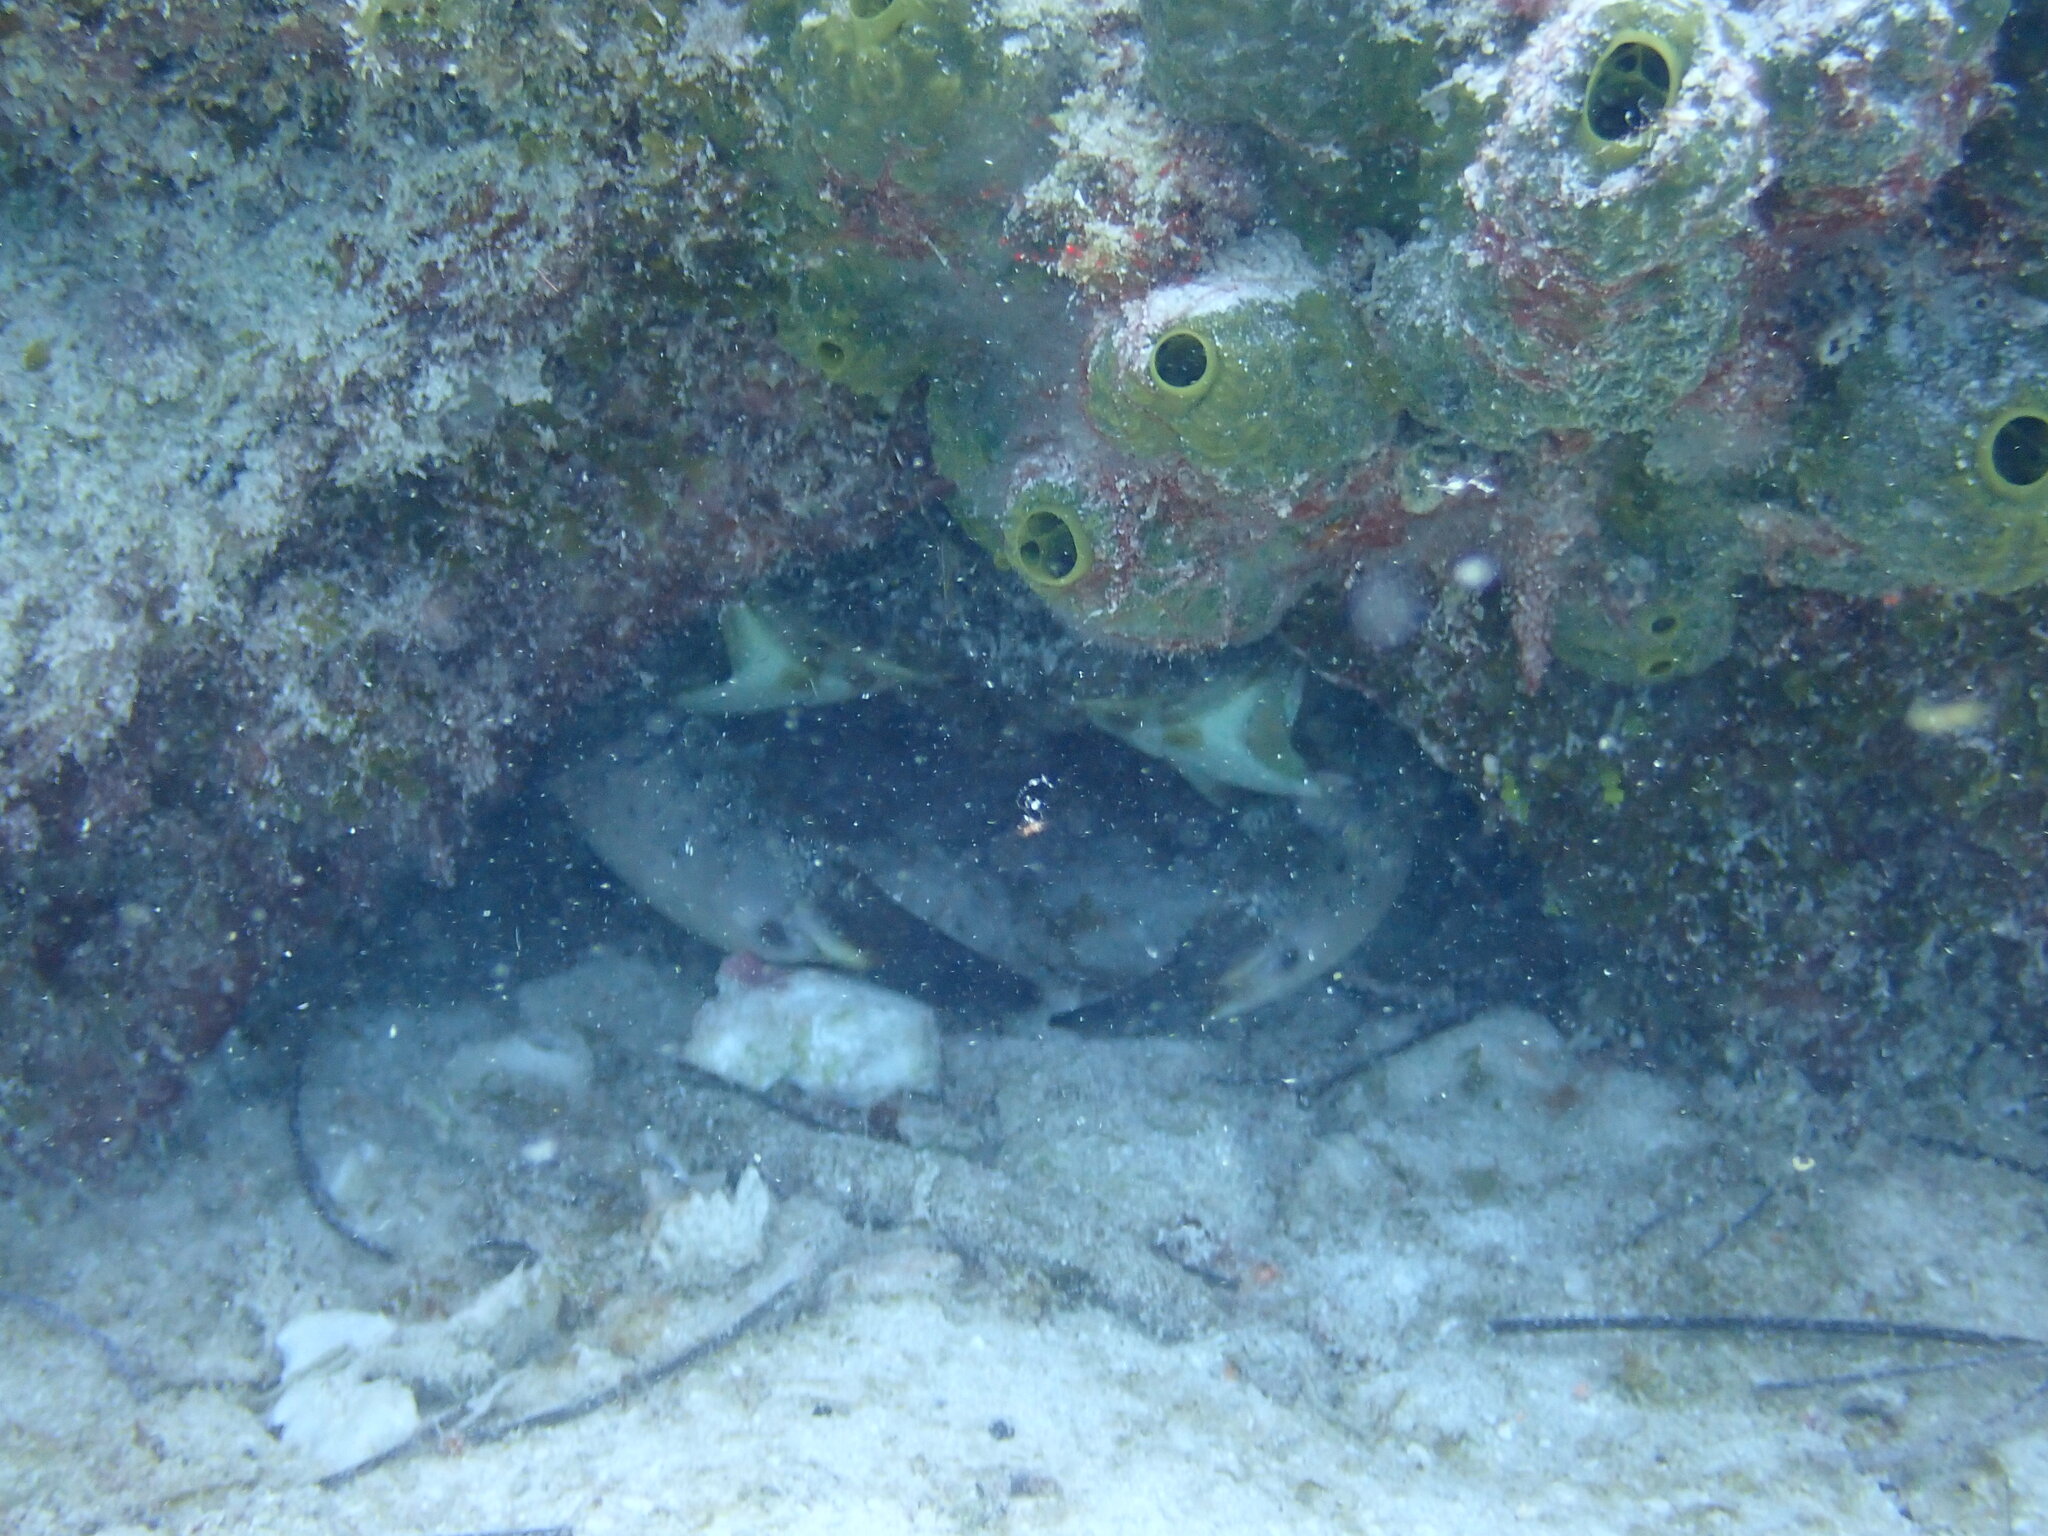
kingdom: Animalia
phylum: Arthropoda
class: Malacostraca
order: Decapoda
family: Menippidae
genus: Menippe
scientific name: Menippe mercenaria
